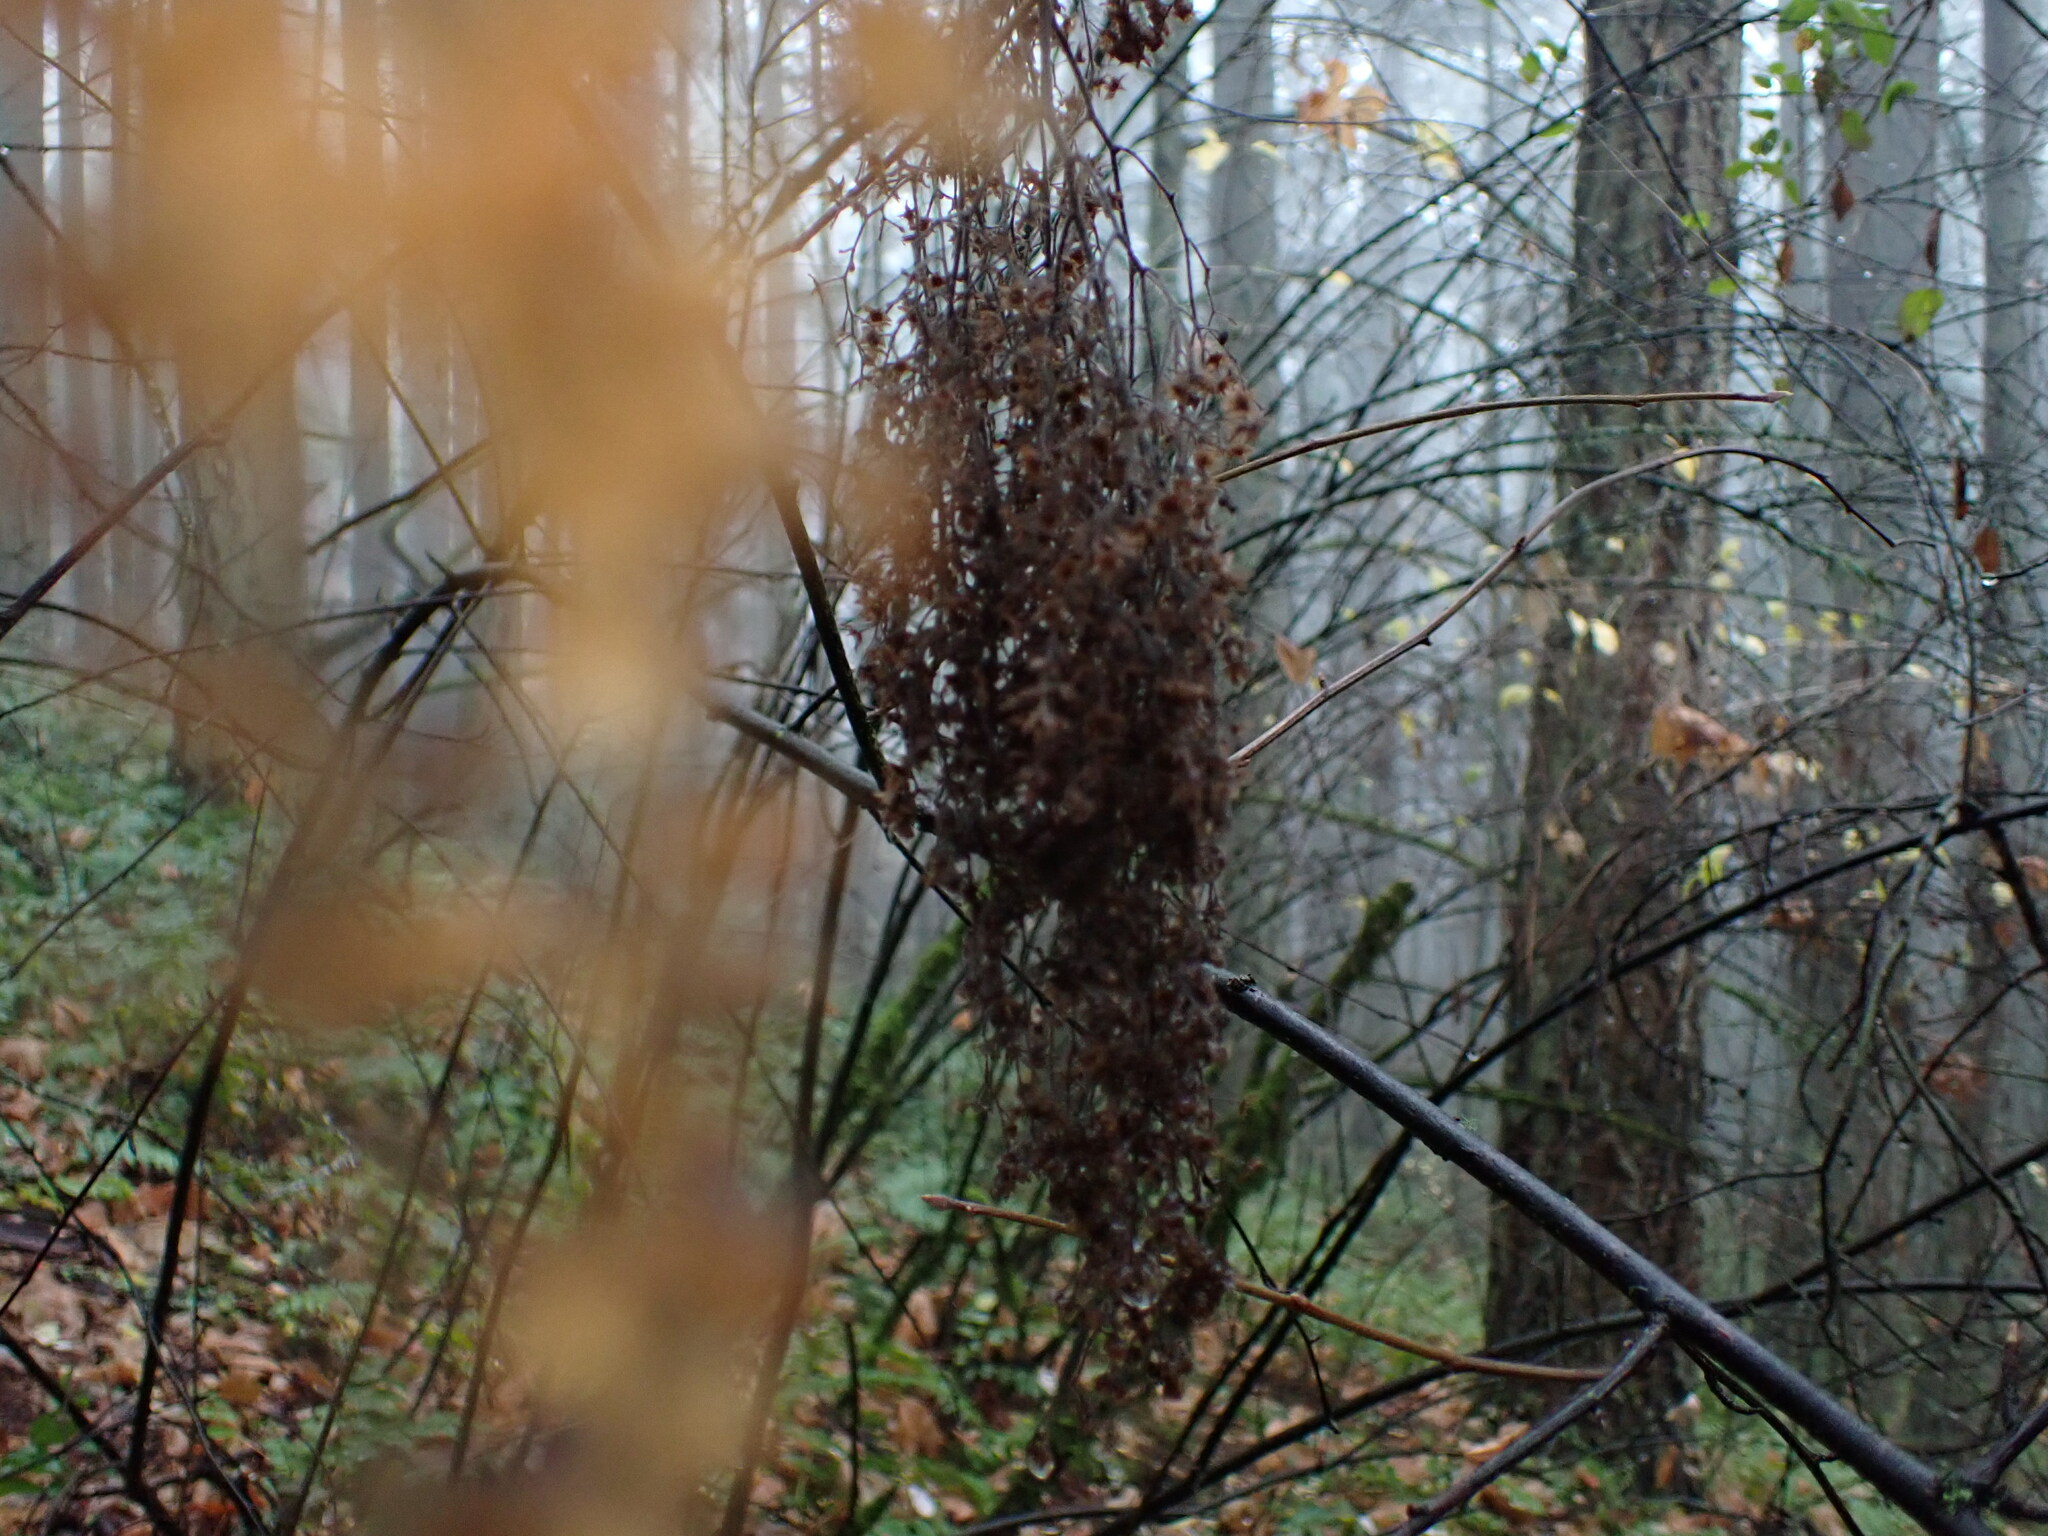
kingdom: Plantae
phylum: Tracheophyta
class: Magnoliopsida
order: Rosales
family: Rosaceae
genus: Holodiscus
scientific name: Holodiscus discolor
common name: Oceanspray
